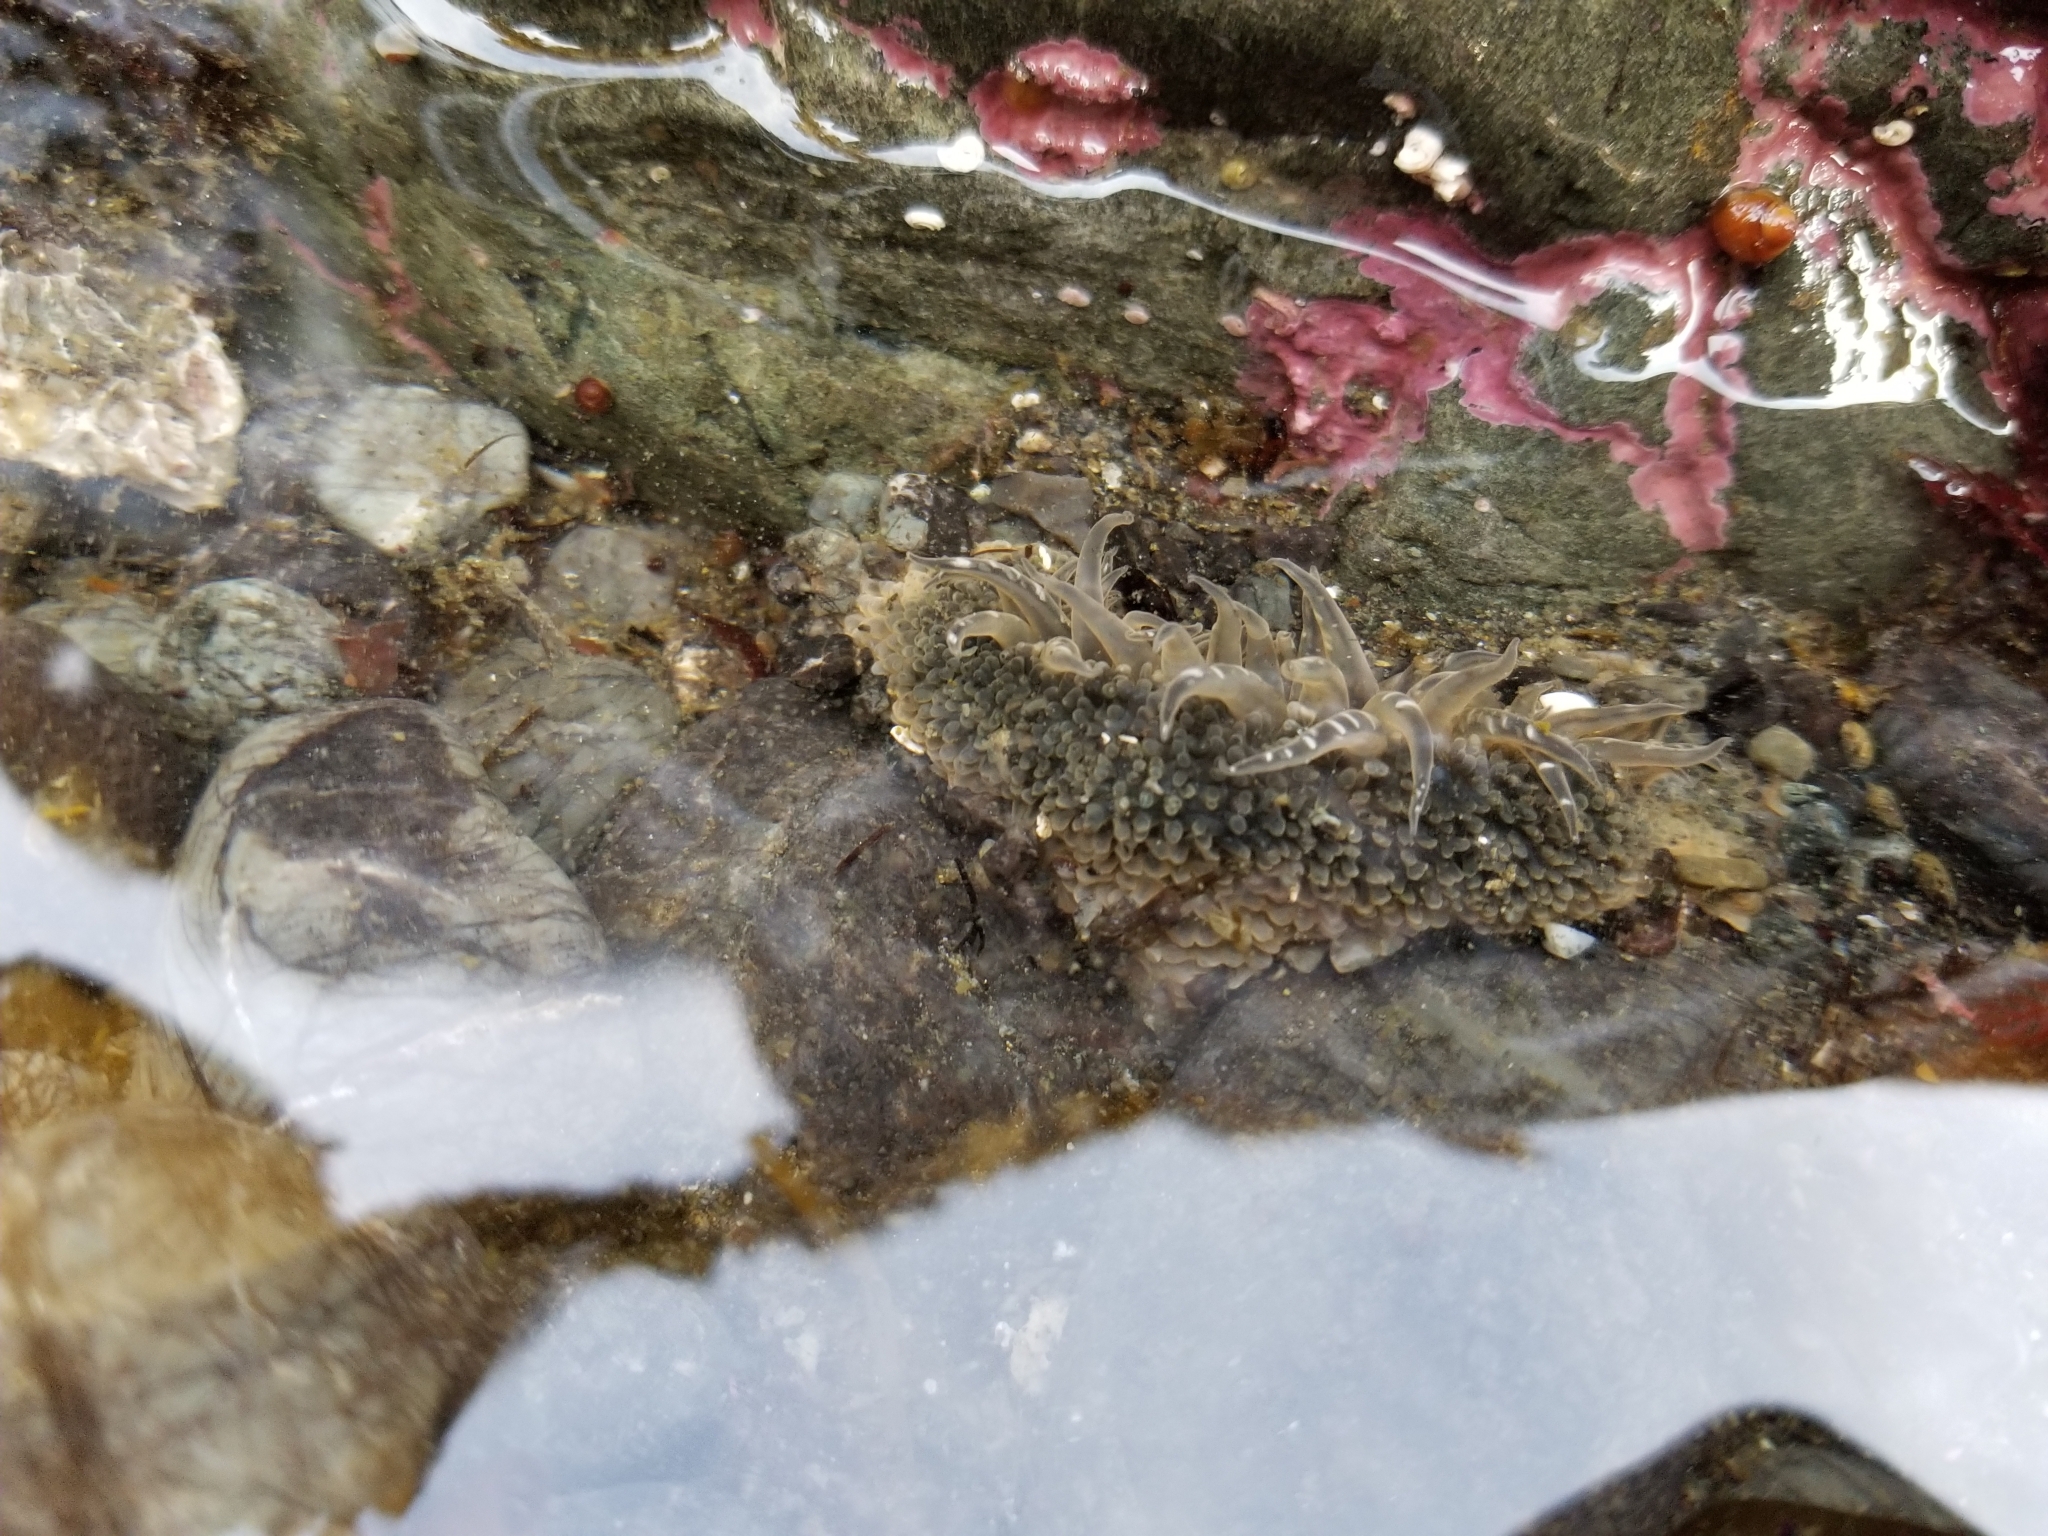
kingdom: Animalia
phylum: Cnidaria
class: Anthozoa
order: Actiniaria
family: Actiniidae
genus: Anthopleura
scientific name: Anthopleura artemisia
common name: Buried sea anemone
